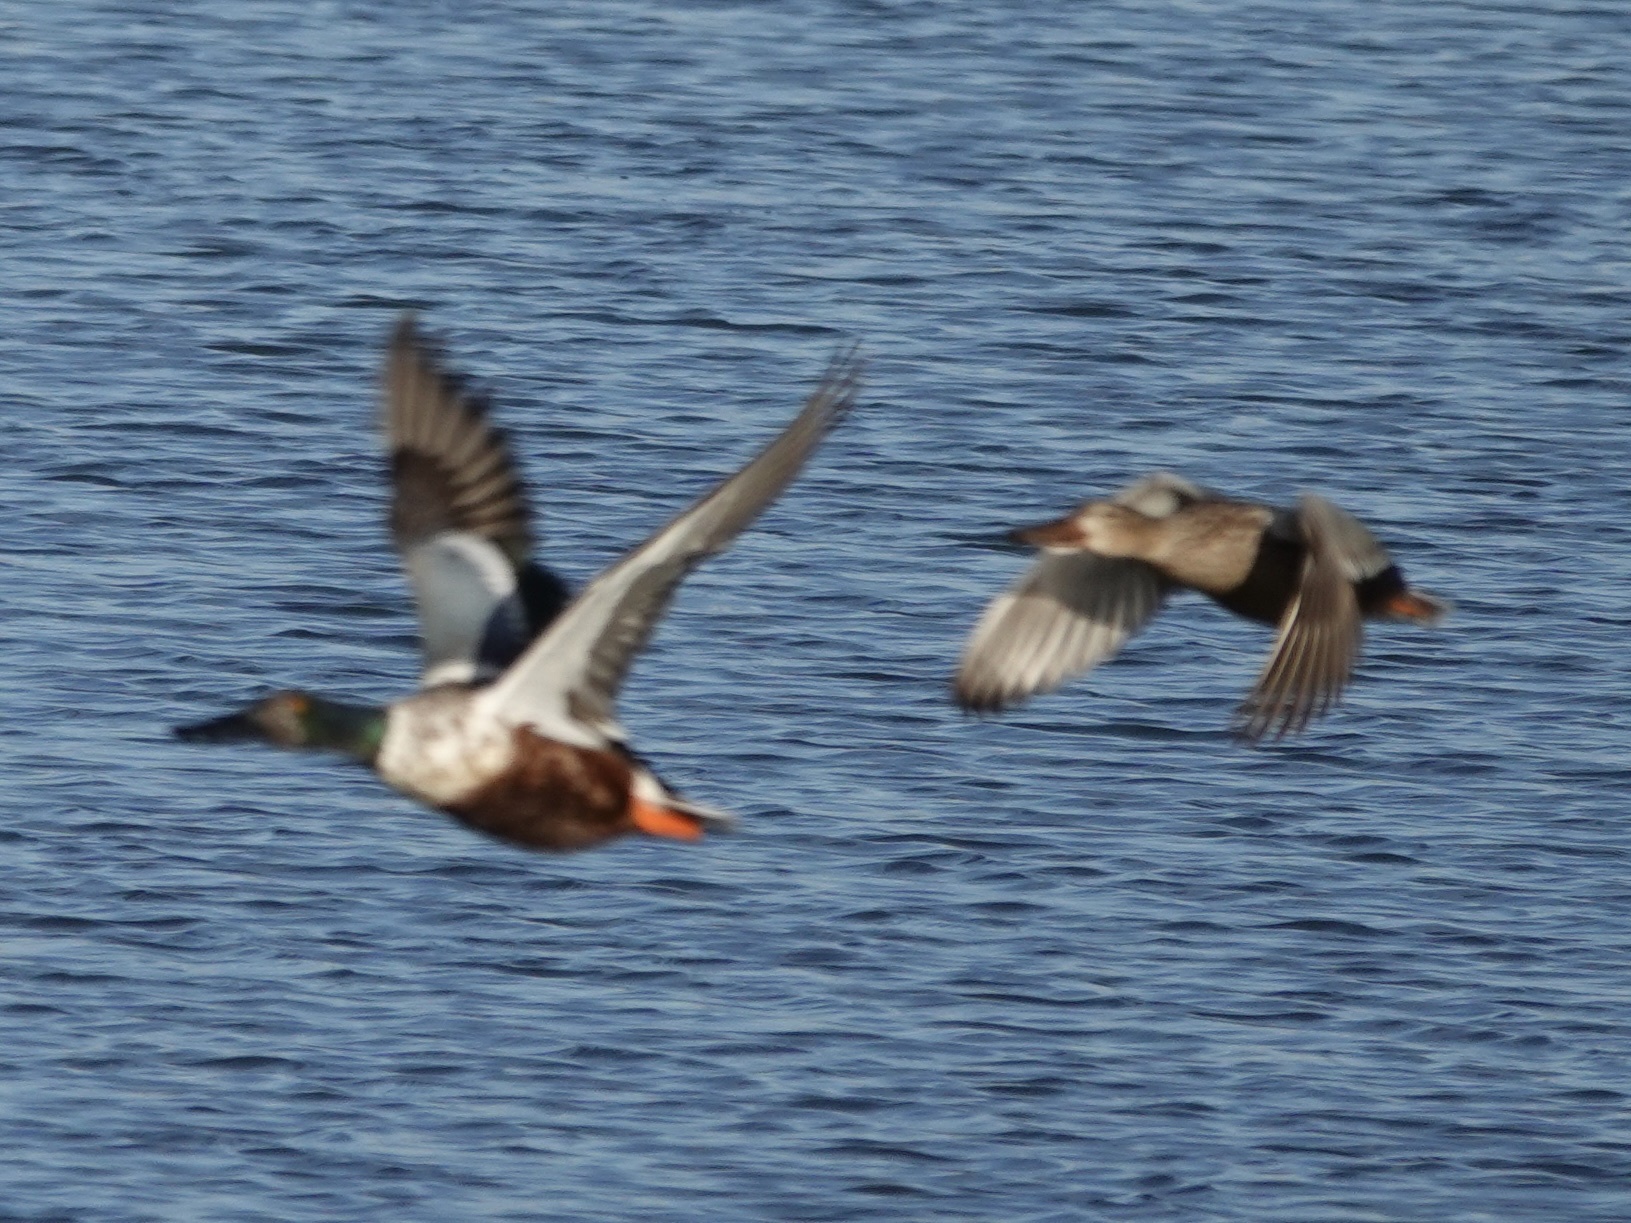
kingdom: Animalia
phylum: Chordata
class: Aves
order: Anseriformes
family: Anatidae
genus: Spatula
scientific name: Spatula clypeata
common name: Northern shoveler
